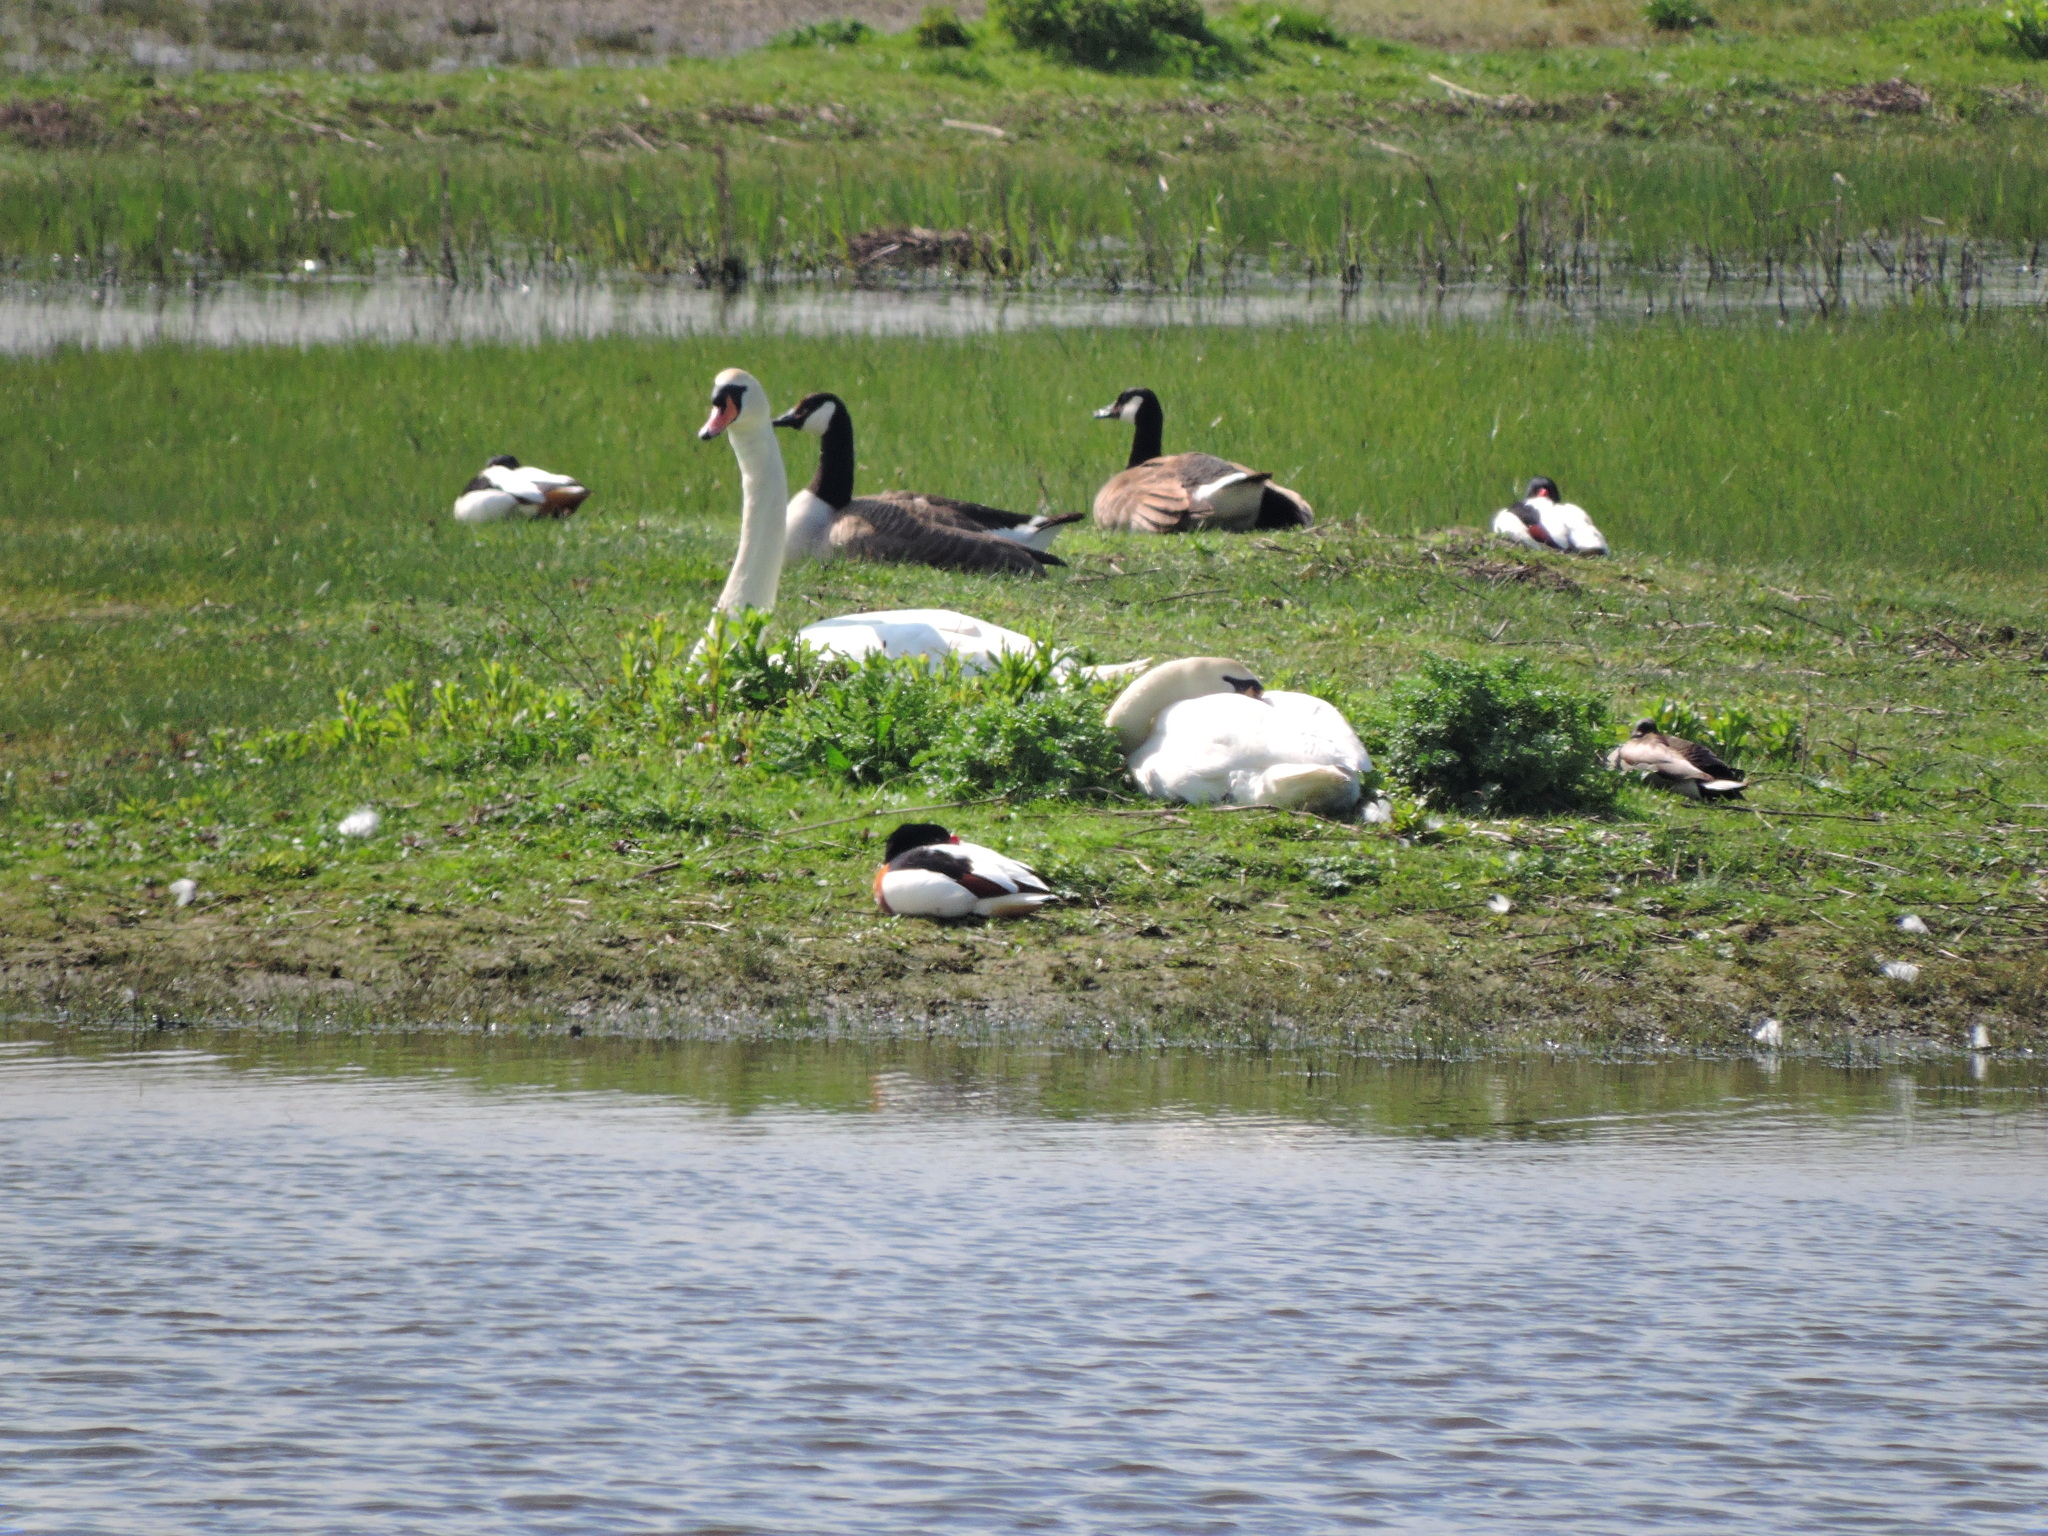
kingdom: Animalia
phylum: Chordata
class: Aves
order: Anseriformes
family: Anatidae
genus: Branta
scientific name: Branta canadensis
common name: Canada goose
